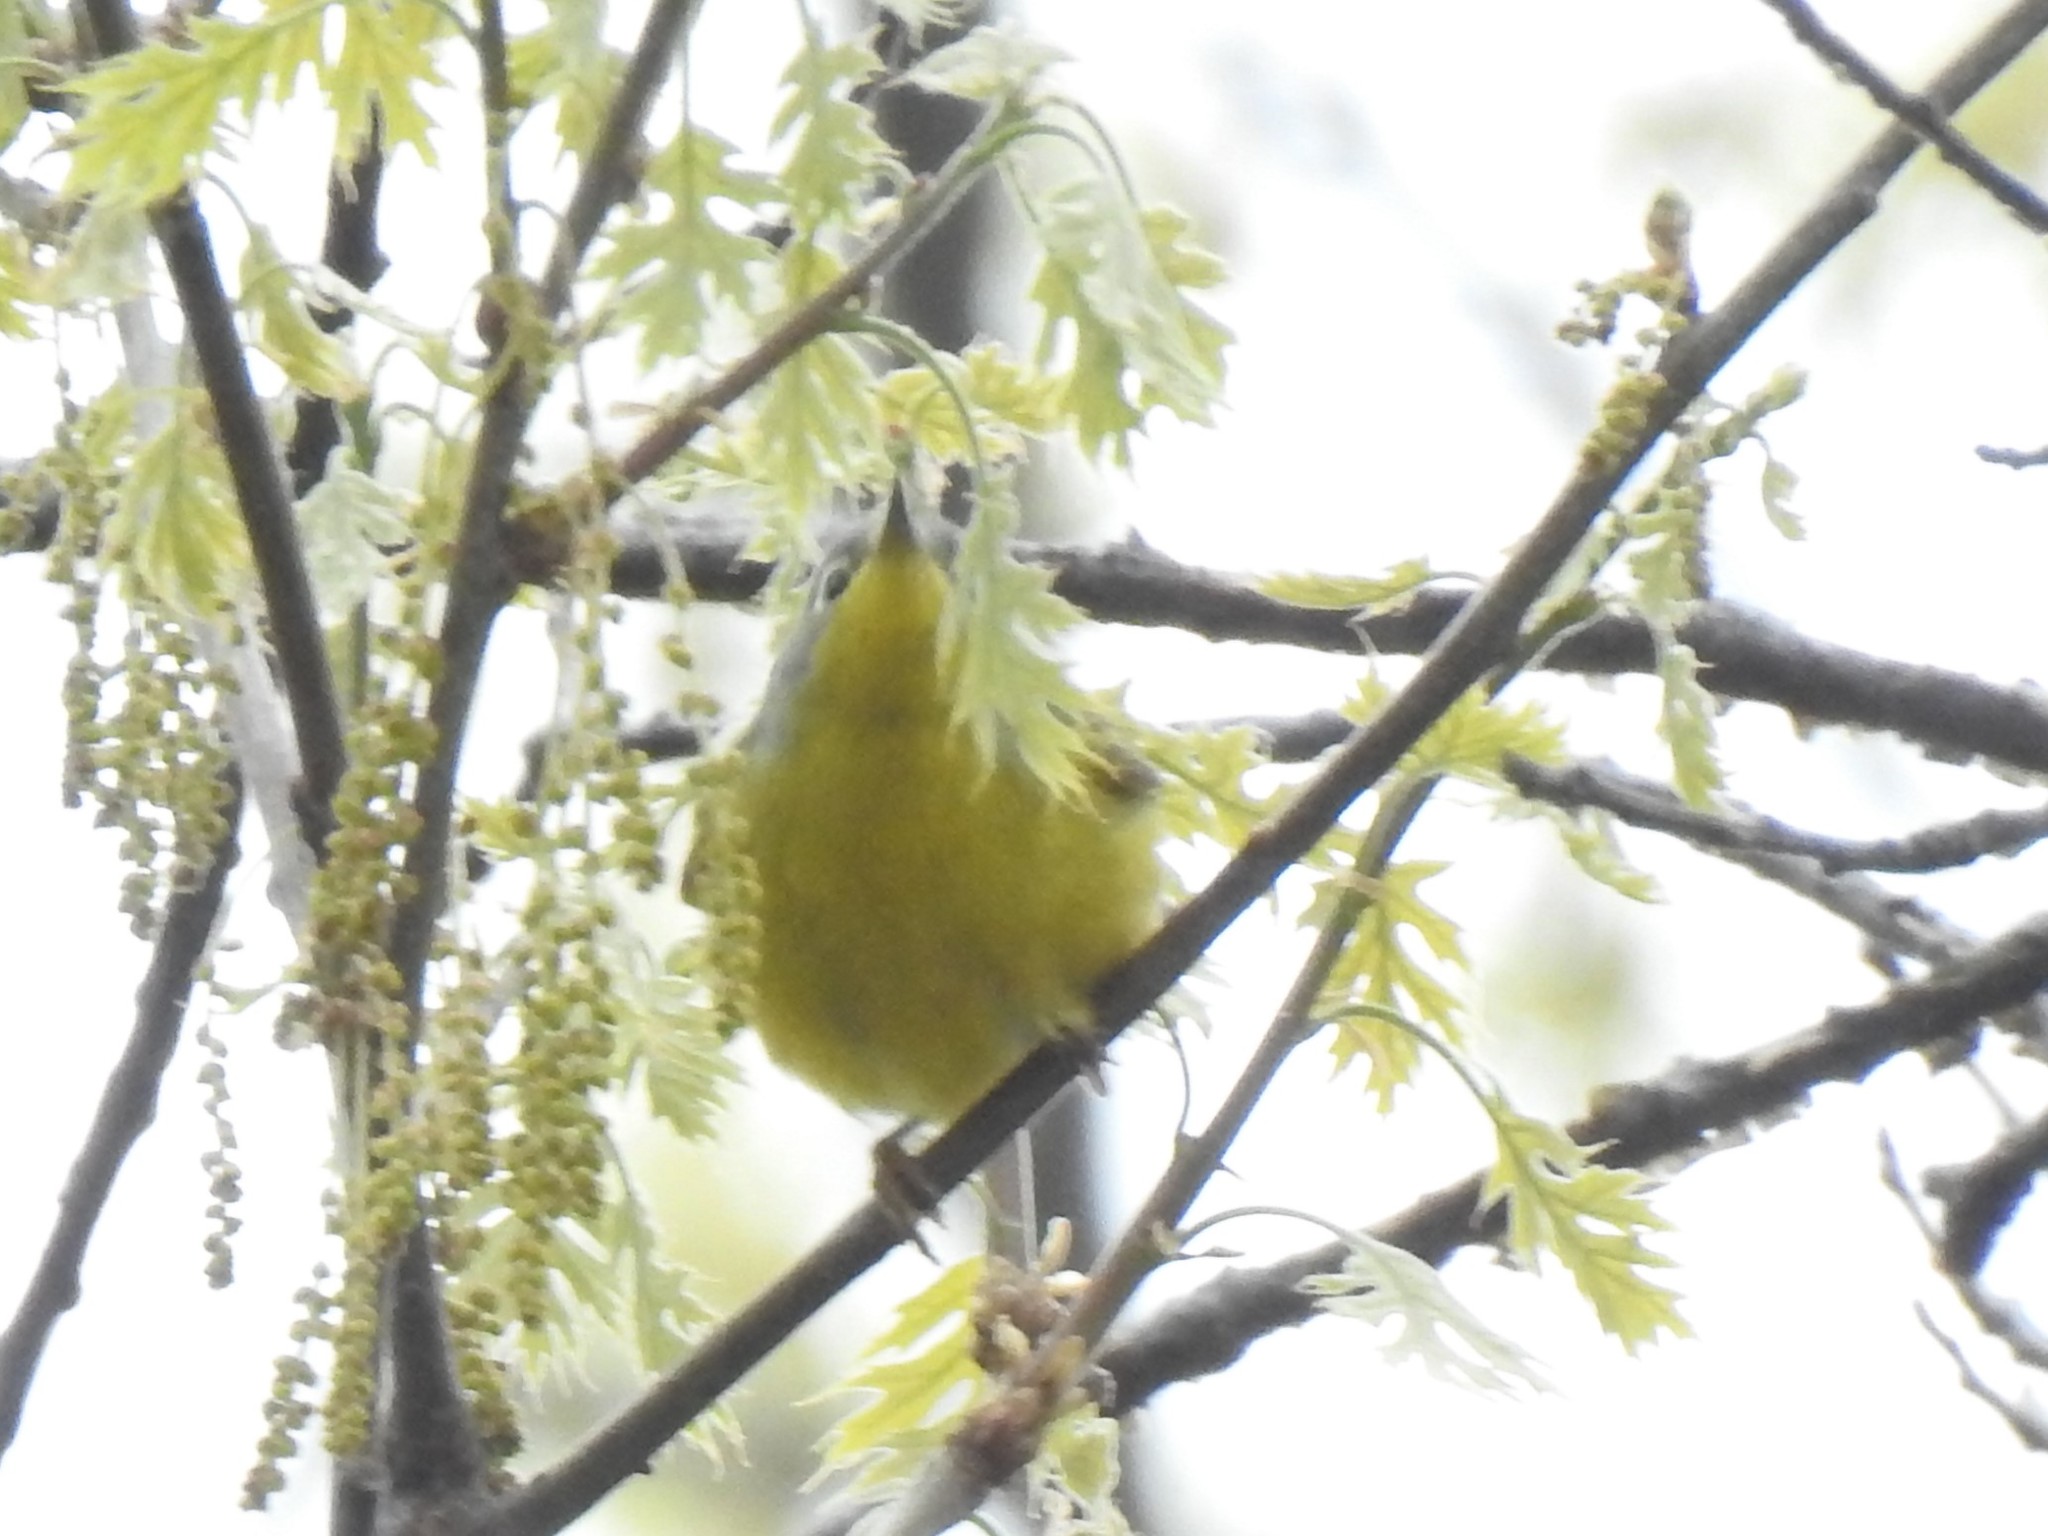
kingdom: Animalia
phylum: Chordata
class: Aves
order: Passeriformes
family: Parulidae
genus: Leiothlypis
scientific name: Leiothlypis ruficapilla
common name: Nashville warbler
